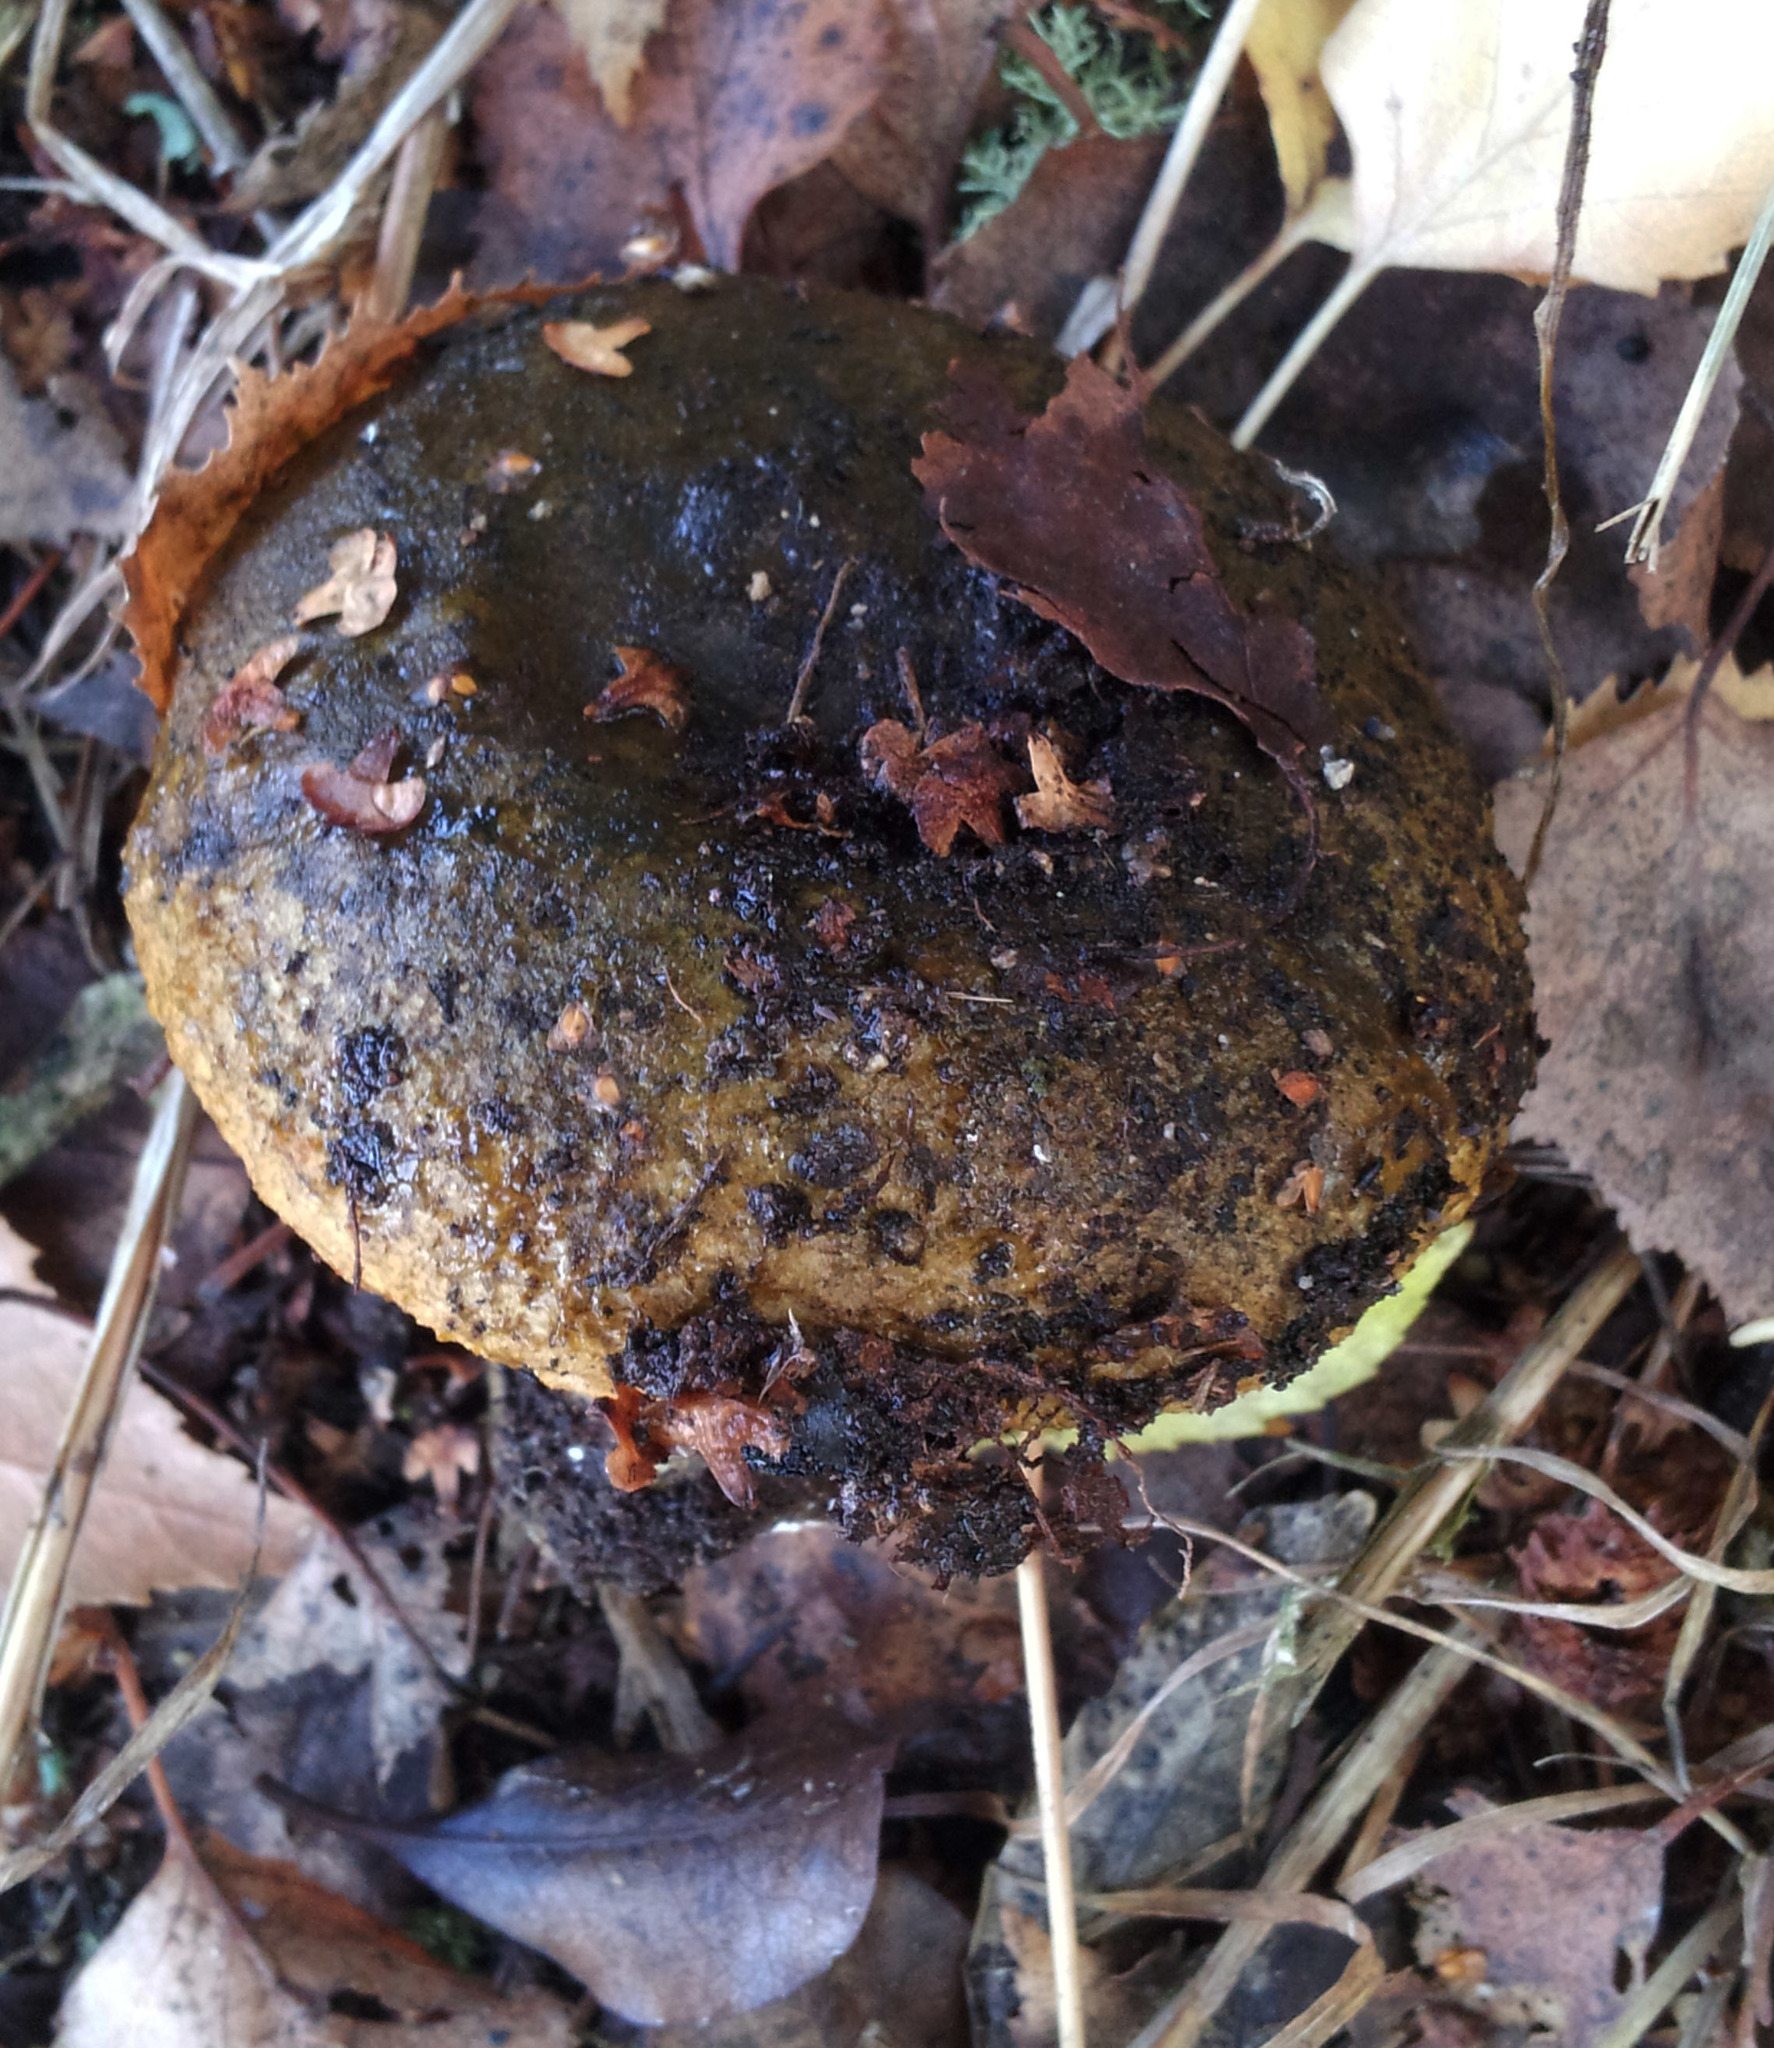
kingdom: Fungi
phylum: Basidiomycota
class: Agaricomycetes
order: Russulales
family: Russulaceae
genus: Lactarius
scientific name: Lactarius turpis
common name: Ugly milk-cap
